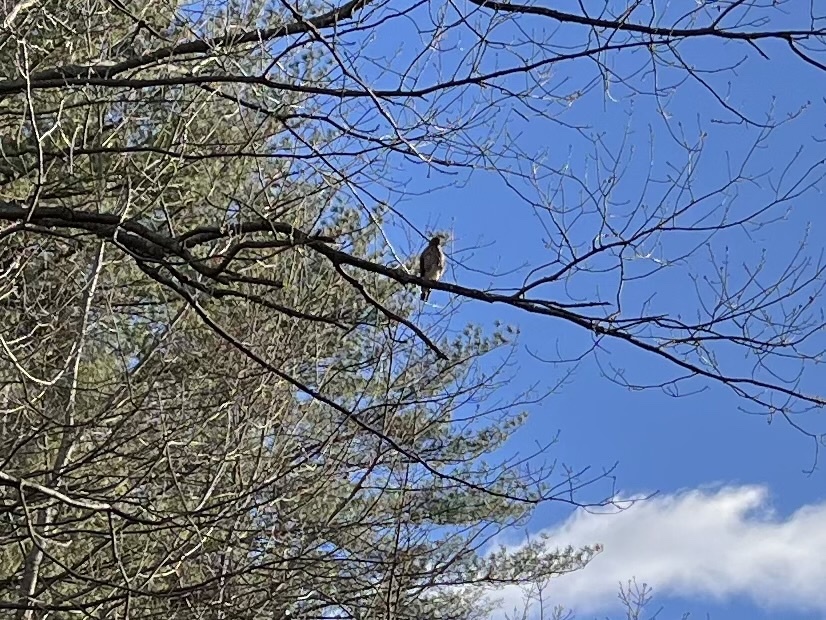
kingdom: Animalia
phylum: Chordata
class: Aves
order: Accipitriformes
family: Accipitridae
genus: Buteo
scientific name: Buteo platypterus
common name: Broad-winged hawk
